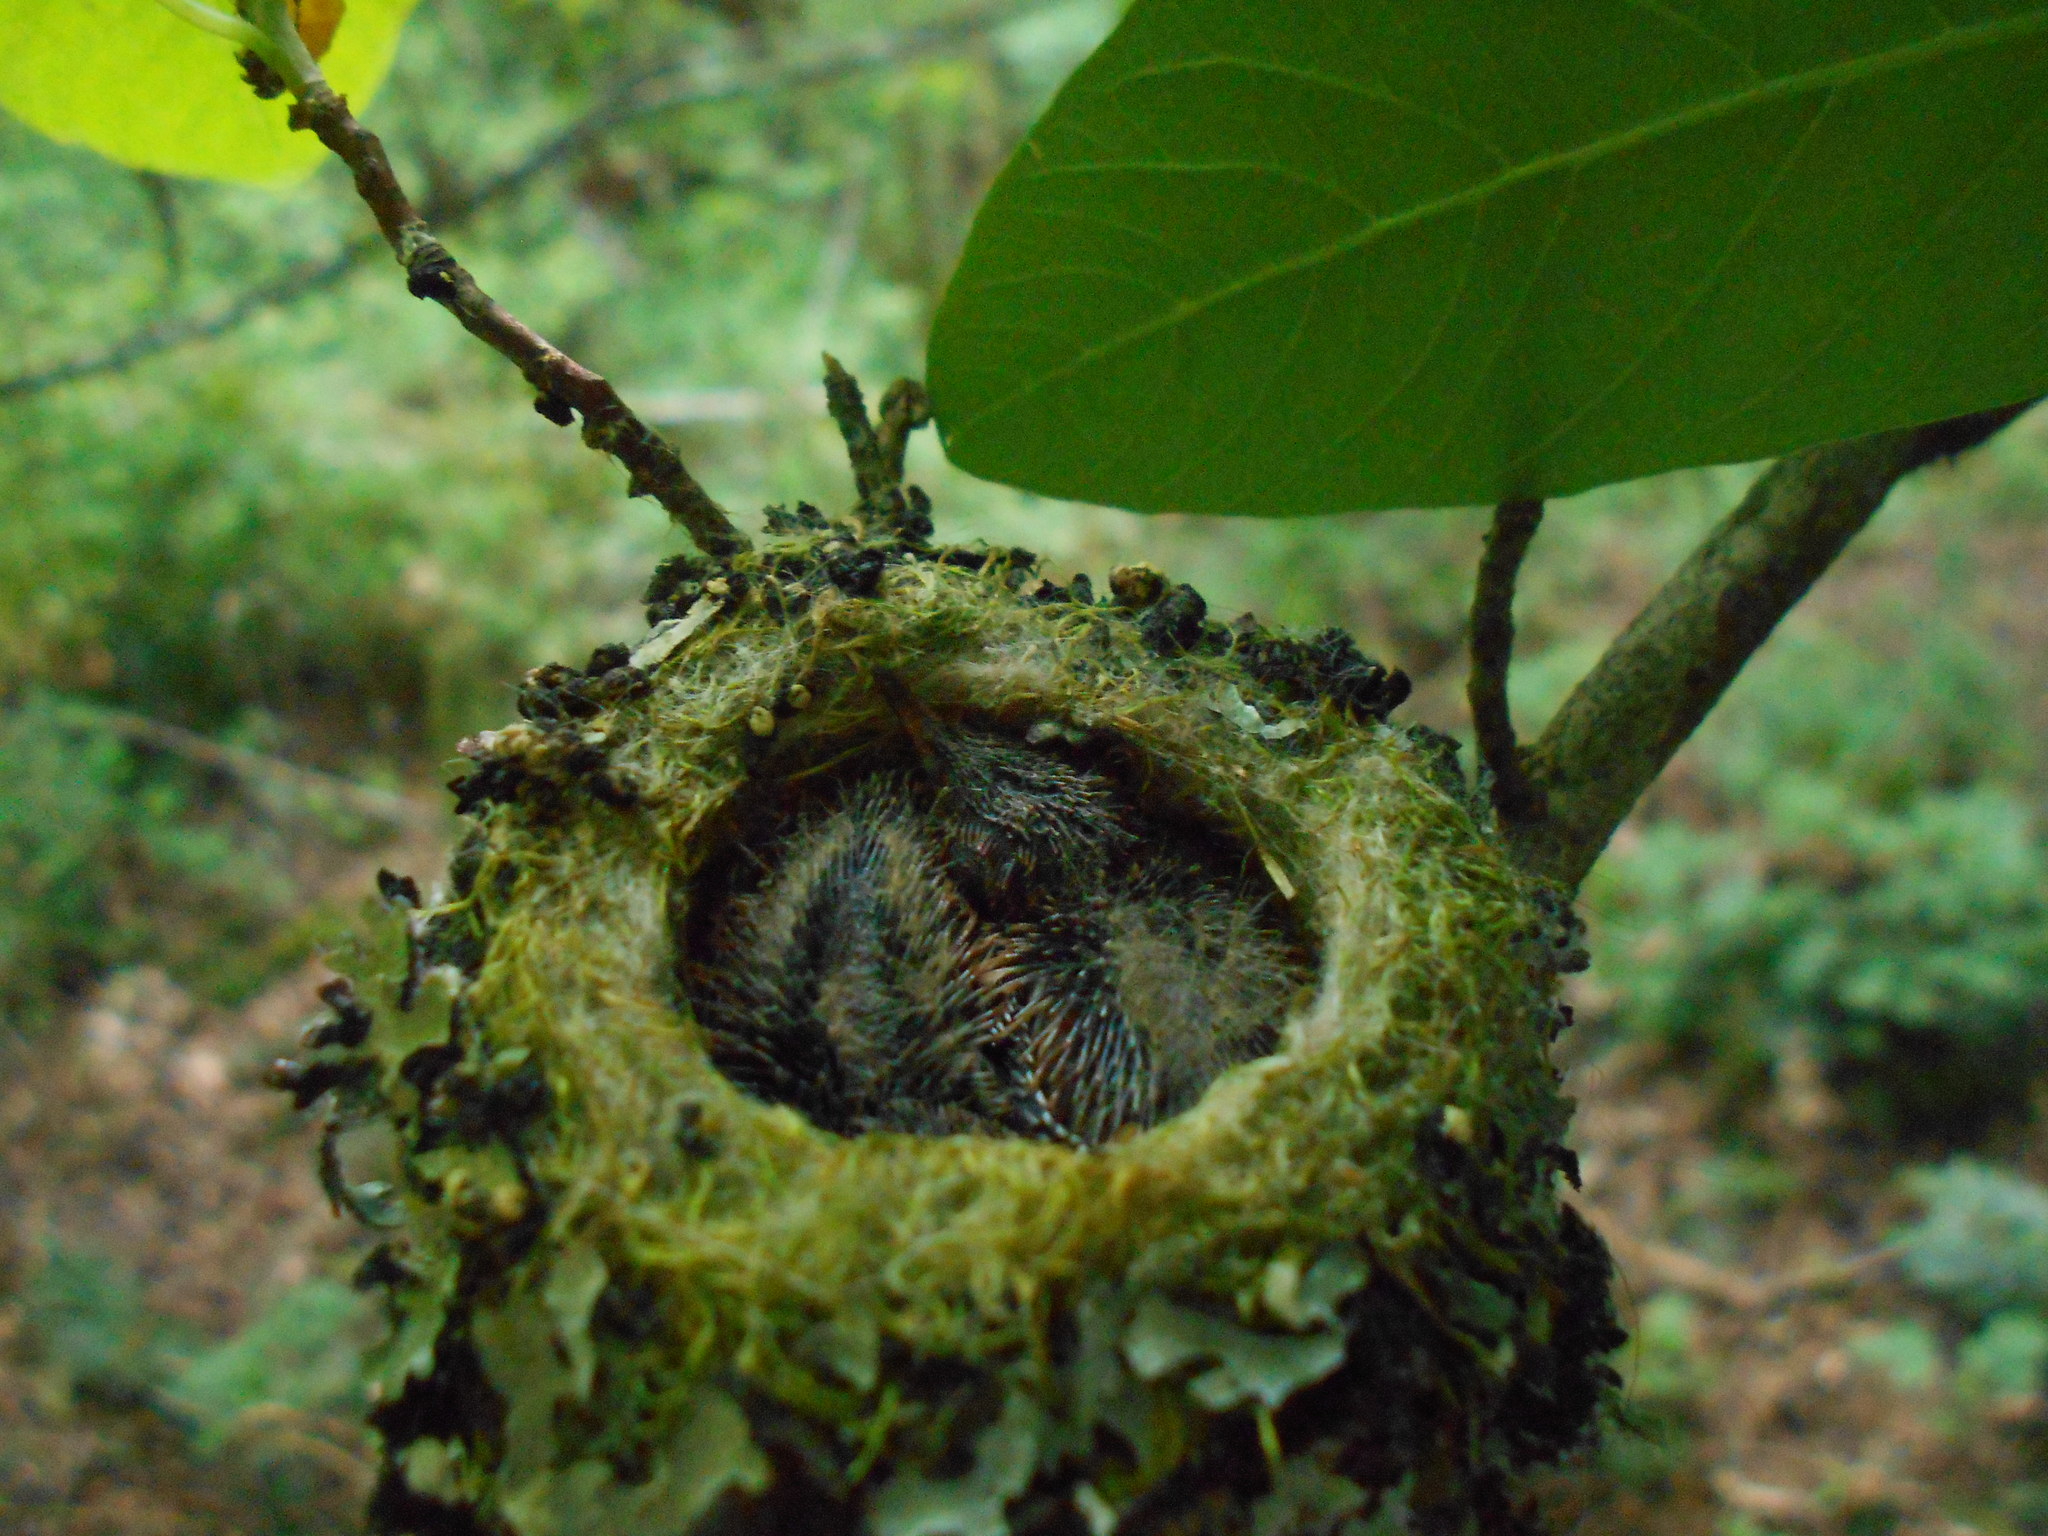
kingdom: Animalia
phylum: Chordata
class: Aves
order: Apodiformes
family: Trochilidae
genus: Selasphorus
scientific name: Selasphorus rufus
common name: Rufous hummingbird
